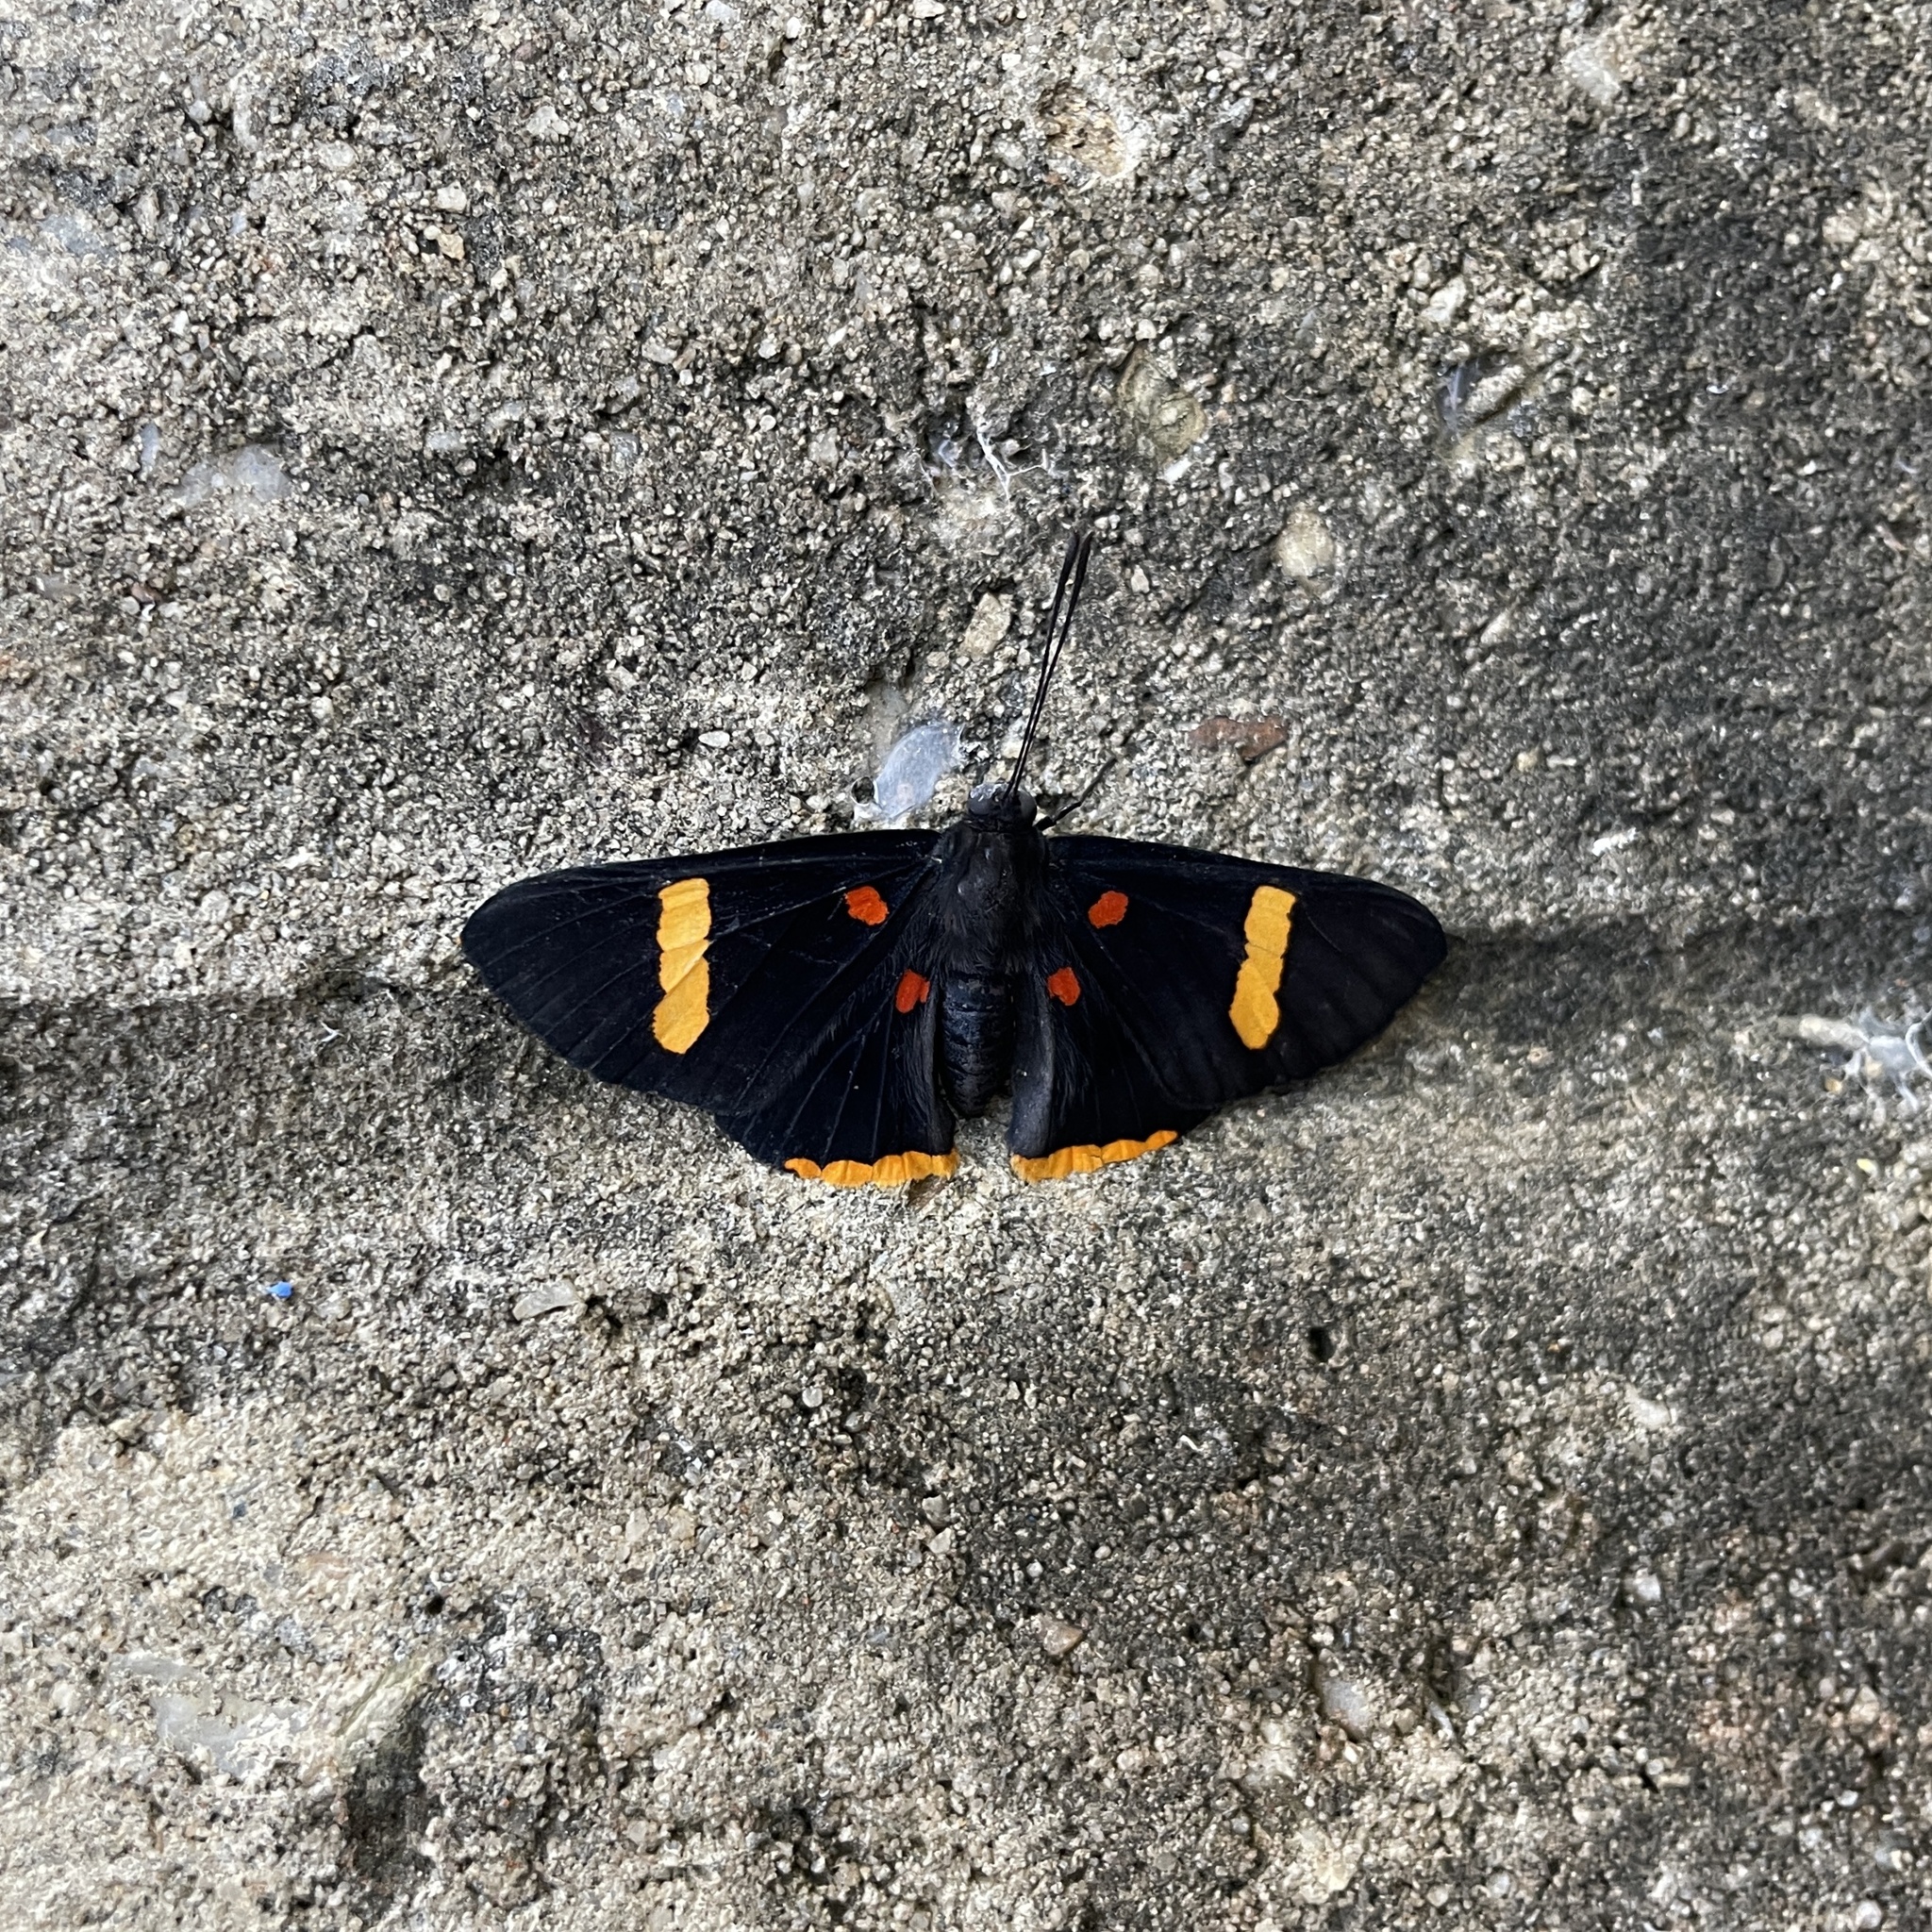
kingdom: Animalia
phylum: Arthropoda
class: Insecta
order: Lepidoptera
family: Lycaenidae
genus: Melanis
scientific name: Melanis electron
